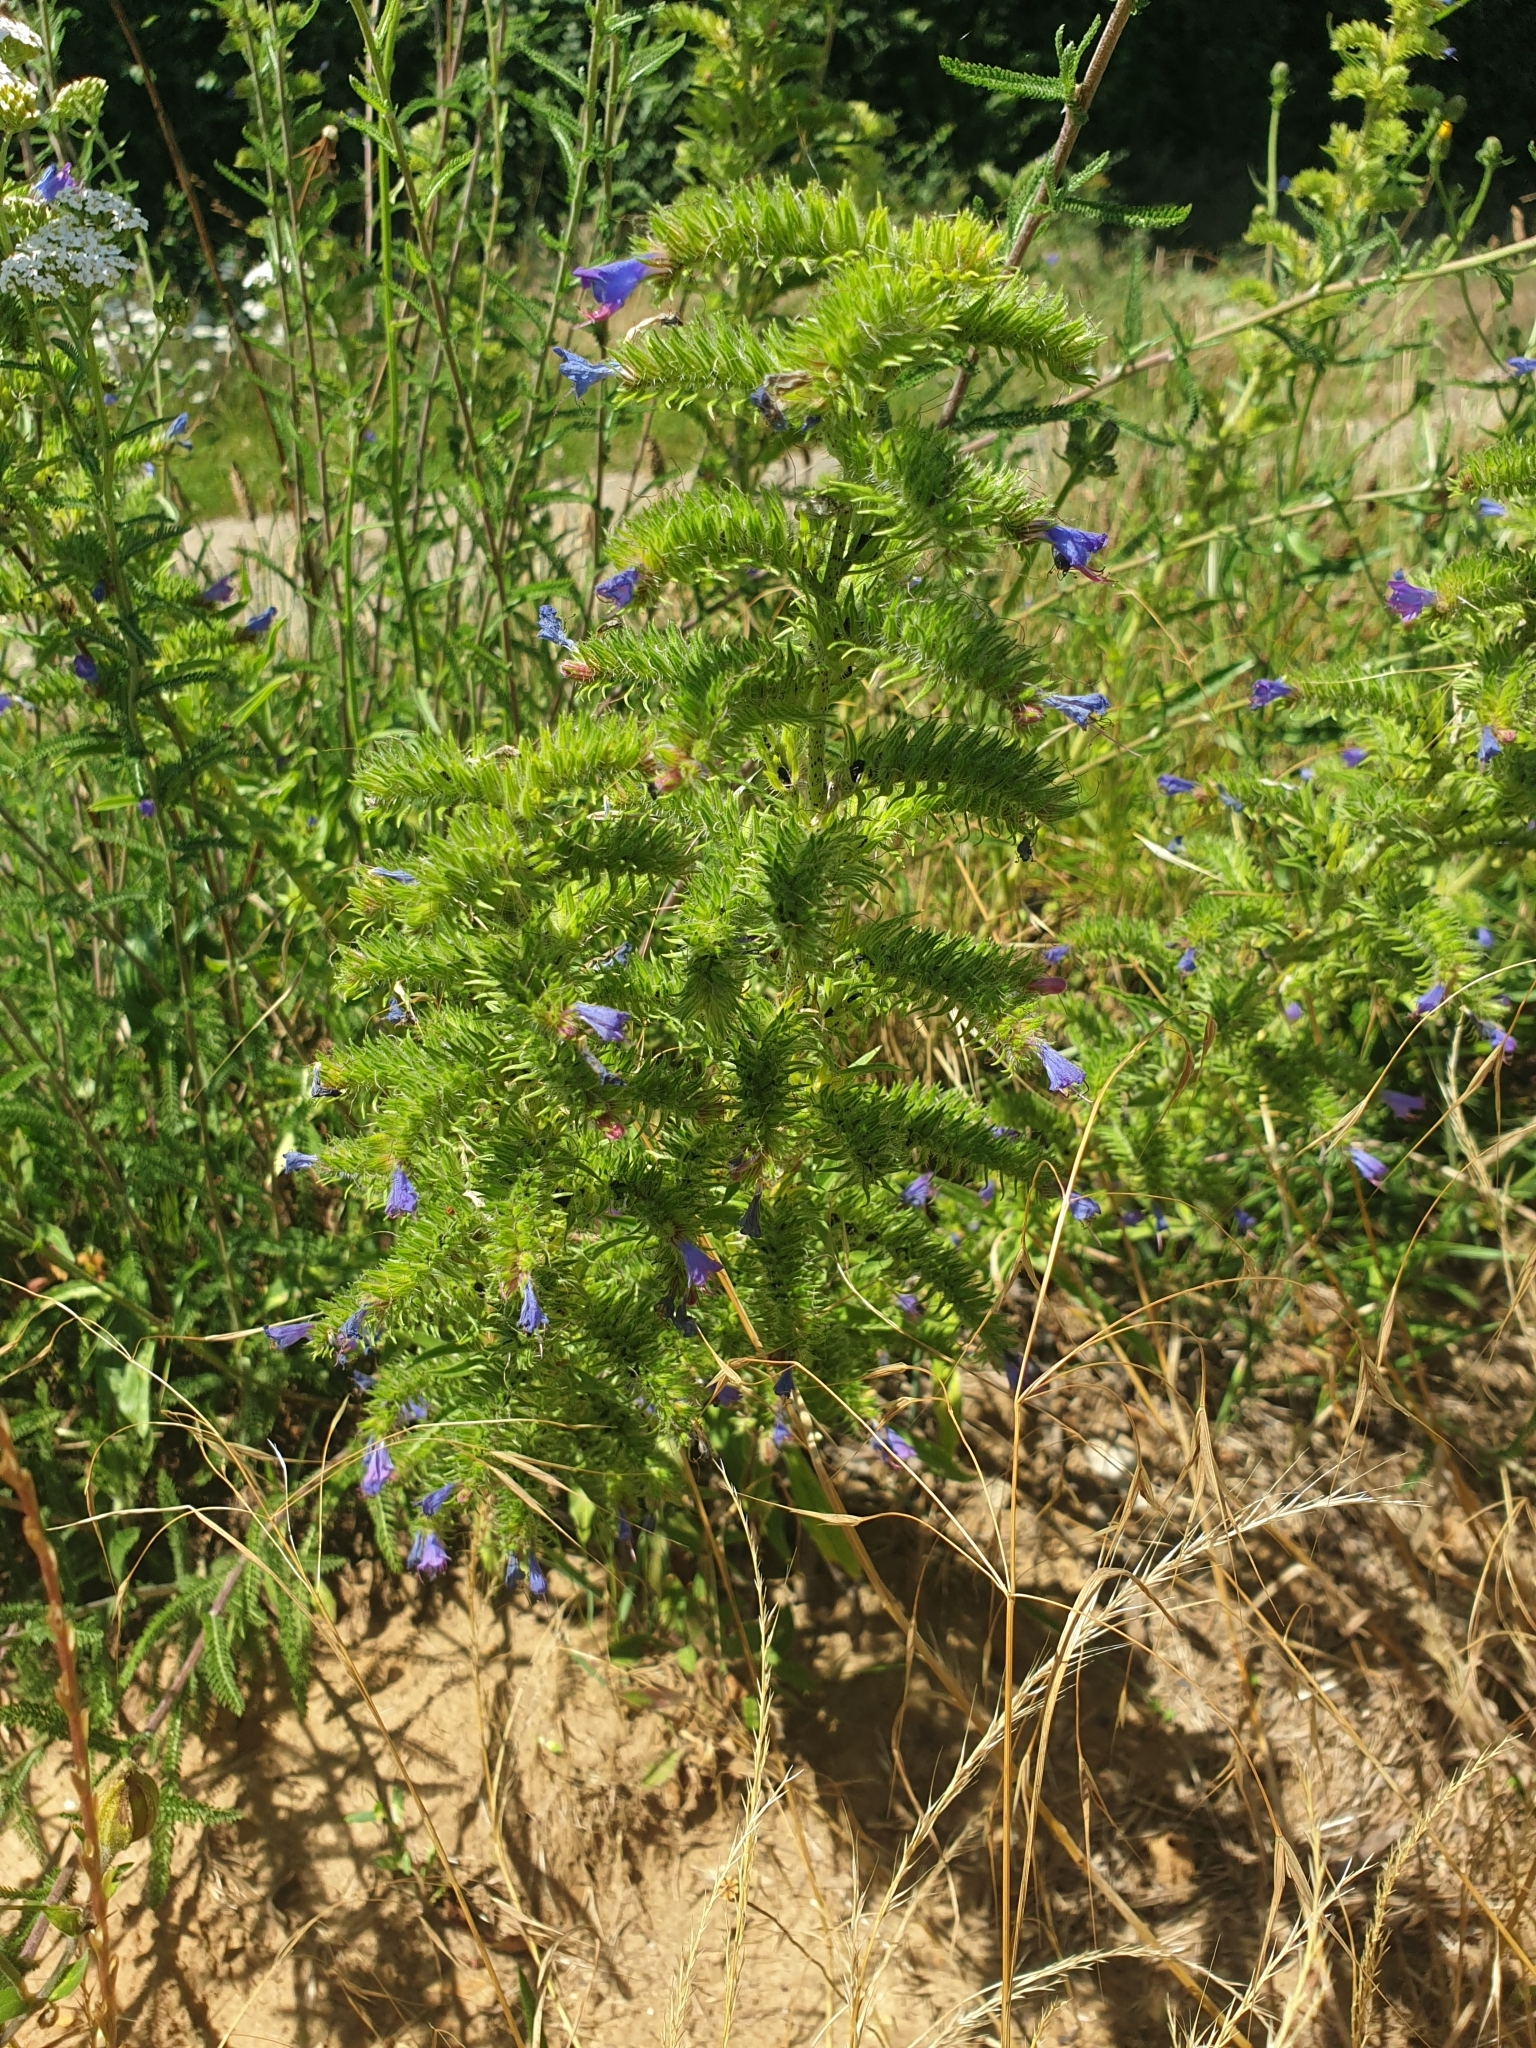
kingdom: Plantae
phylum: Tracheophyta
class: Magnoliopsida
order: Boraginales
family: Boraginaceae
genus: Echium
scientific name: Echium vulgare
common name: Common viper's bugloss
